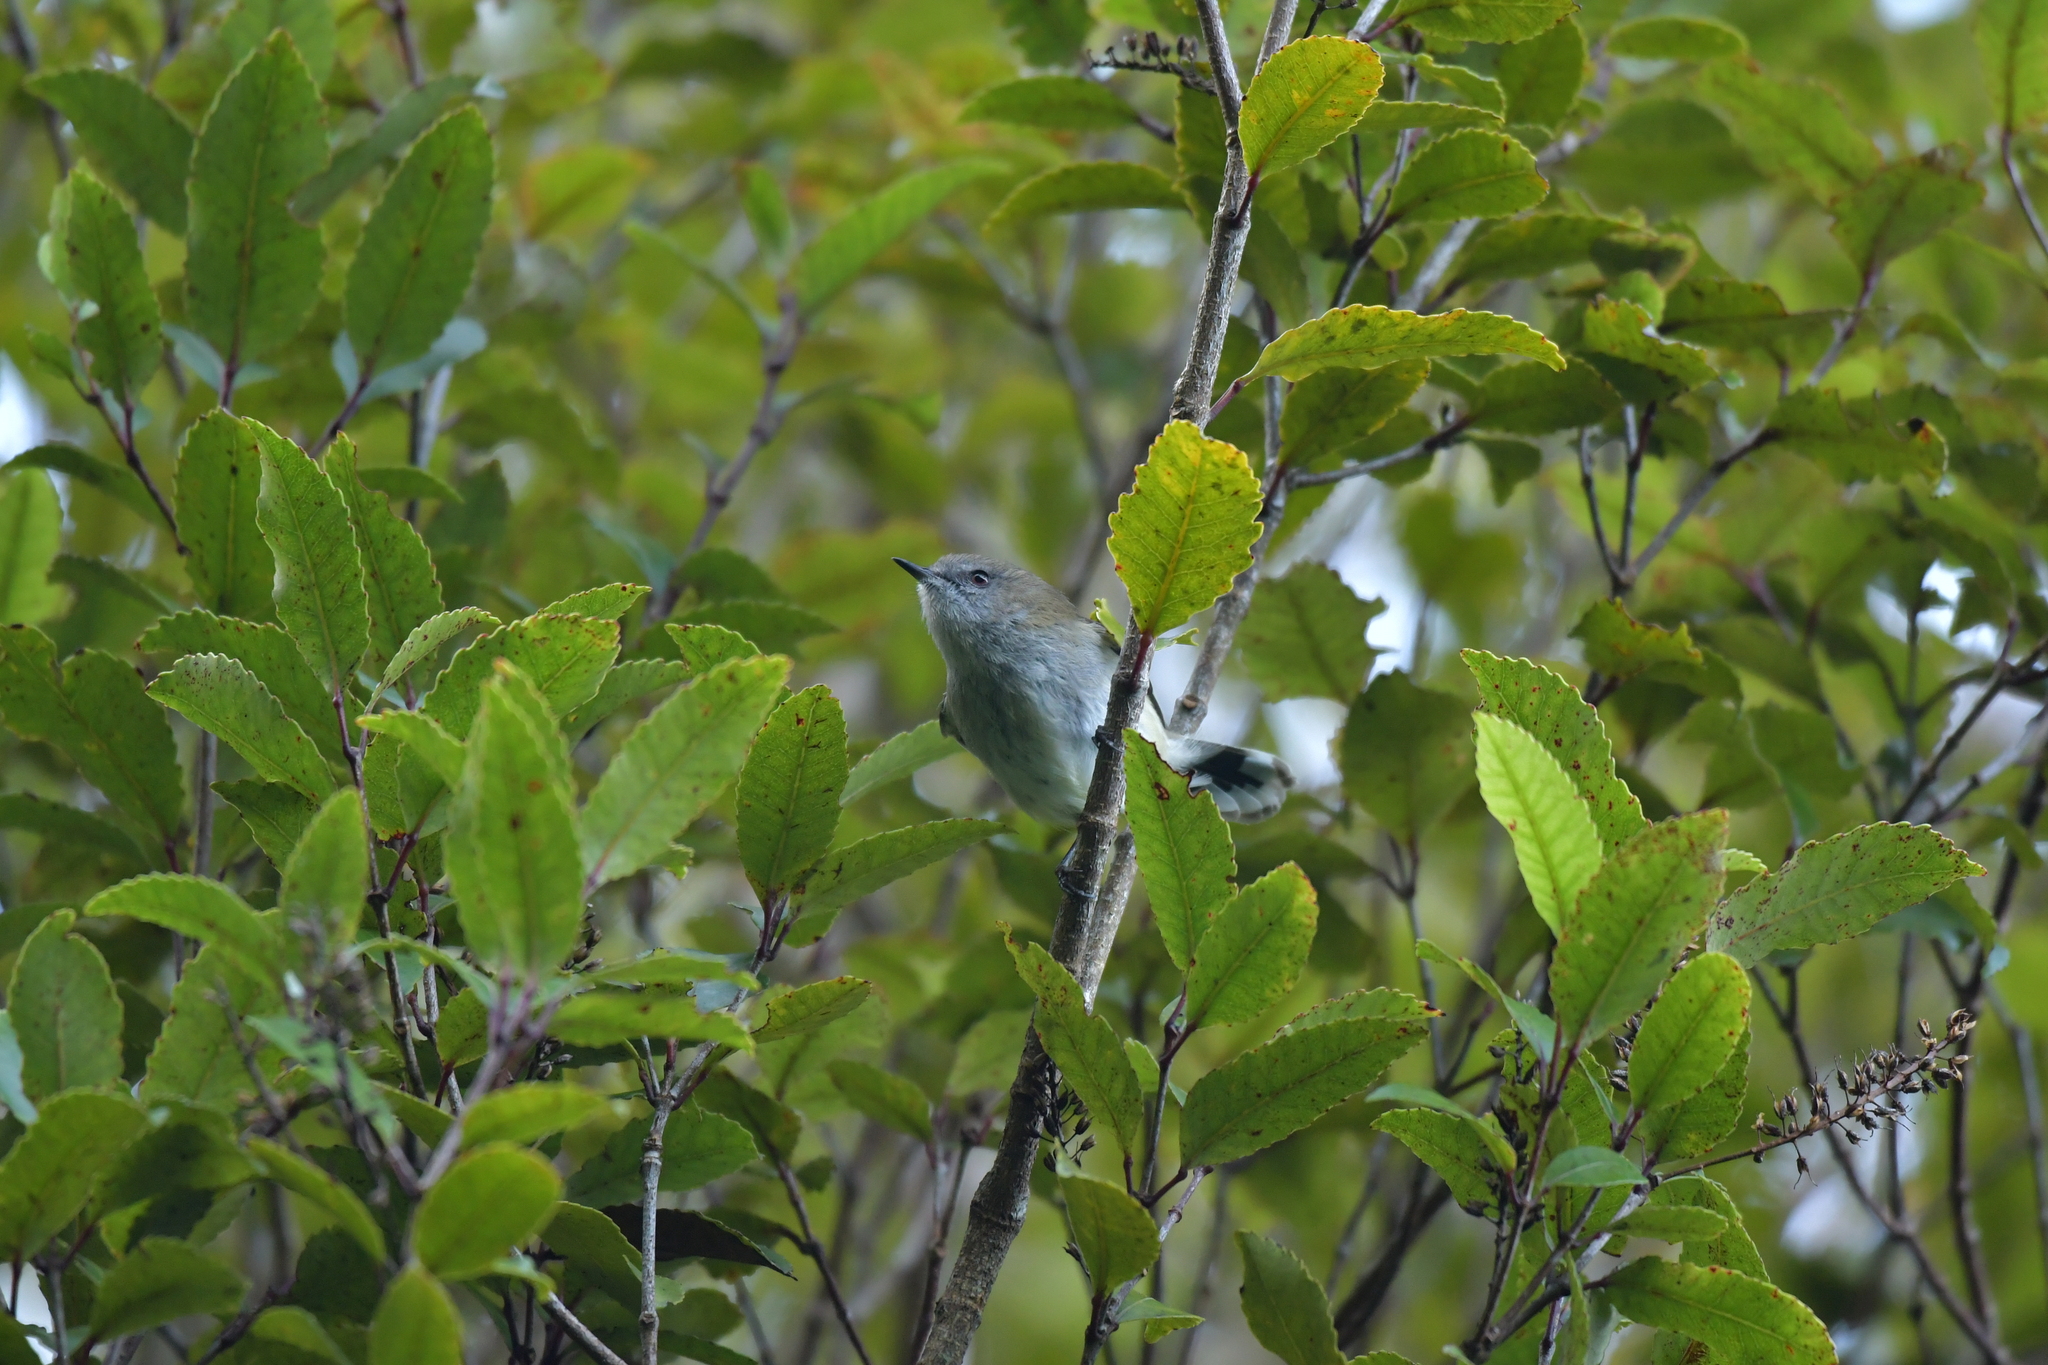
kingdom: Animalia
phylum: Chordata
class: Aves
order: Passeriformes
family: Acanthizidae
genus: Gerygone
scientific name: Gerygone igata
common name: Grey gerygone
